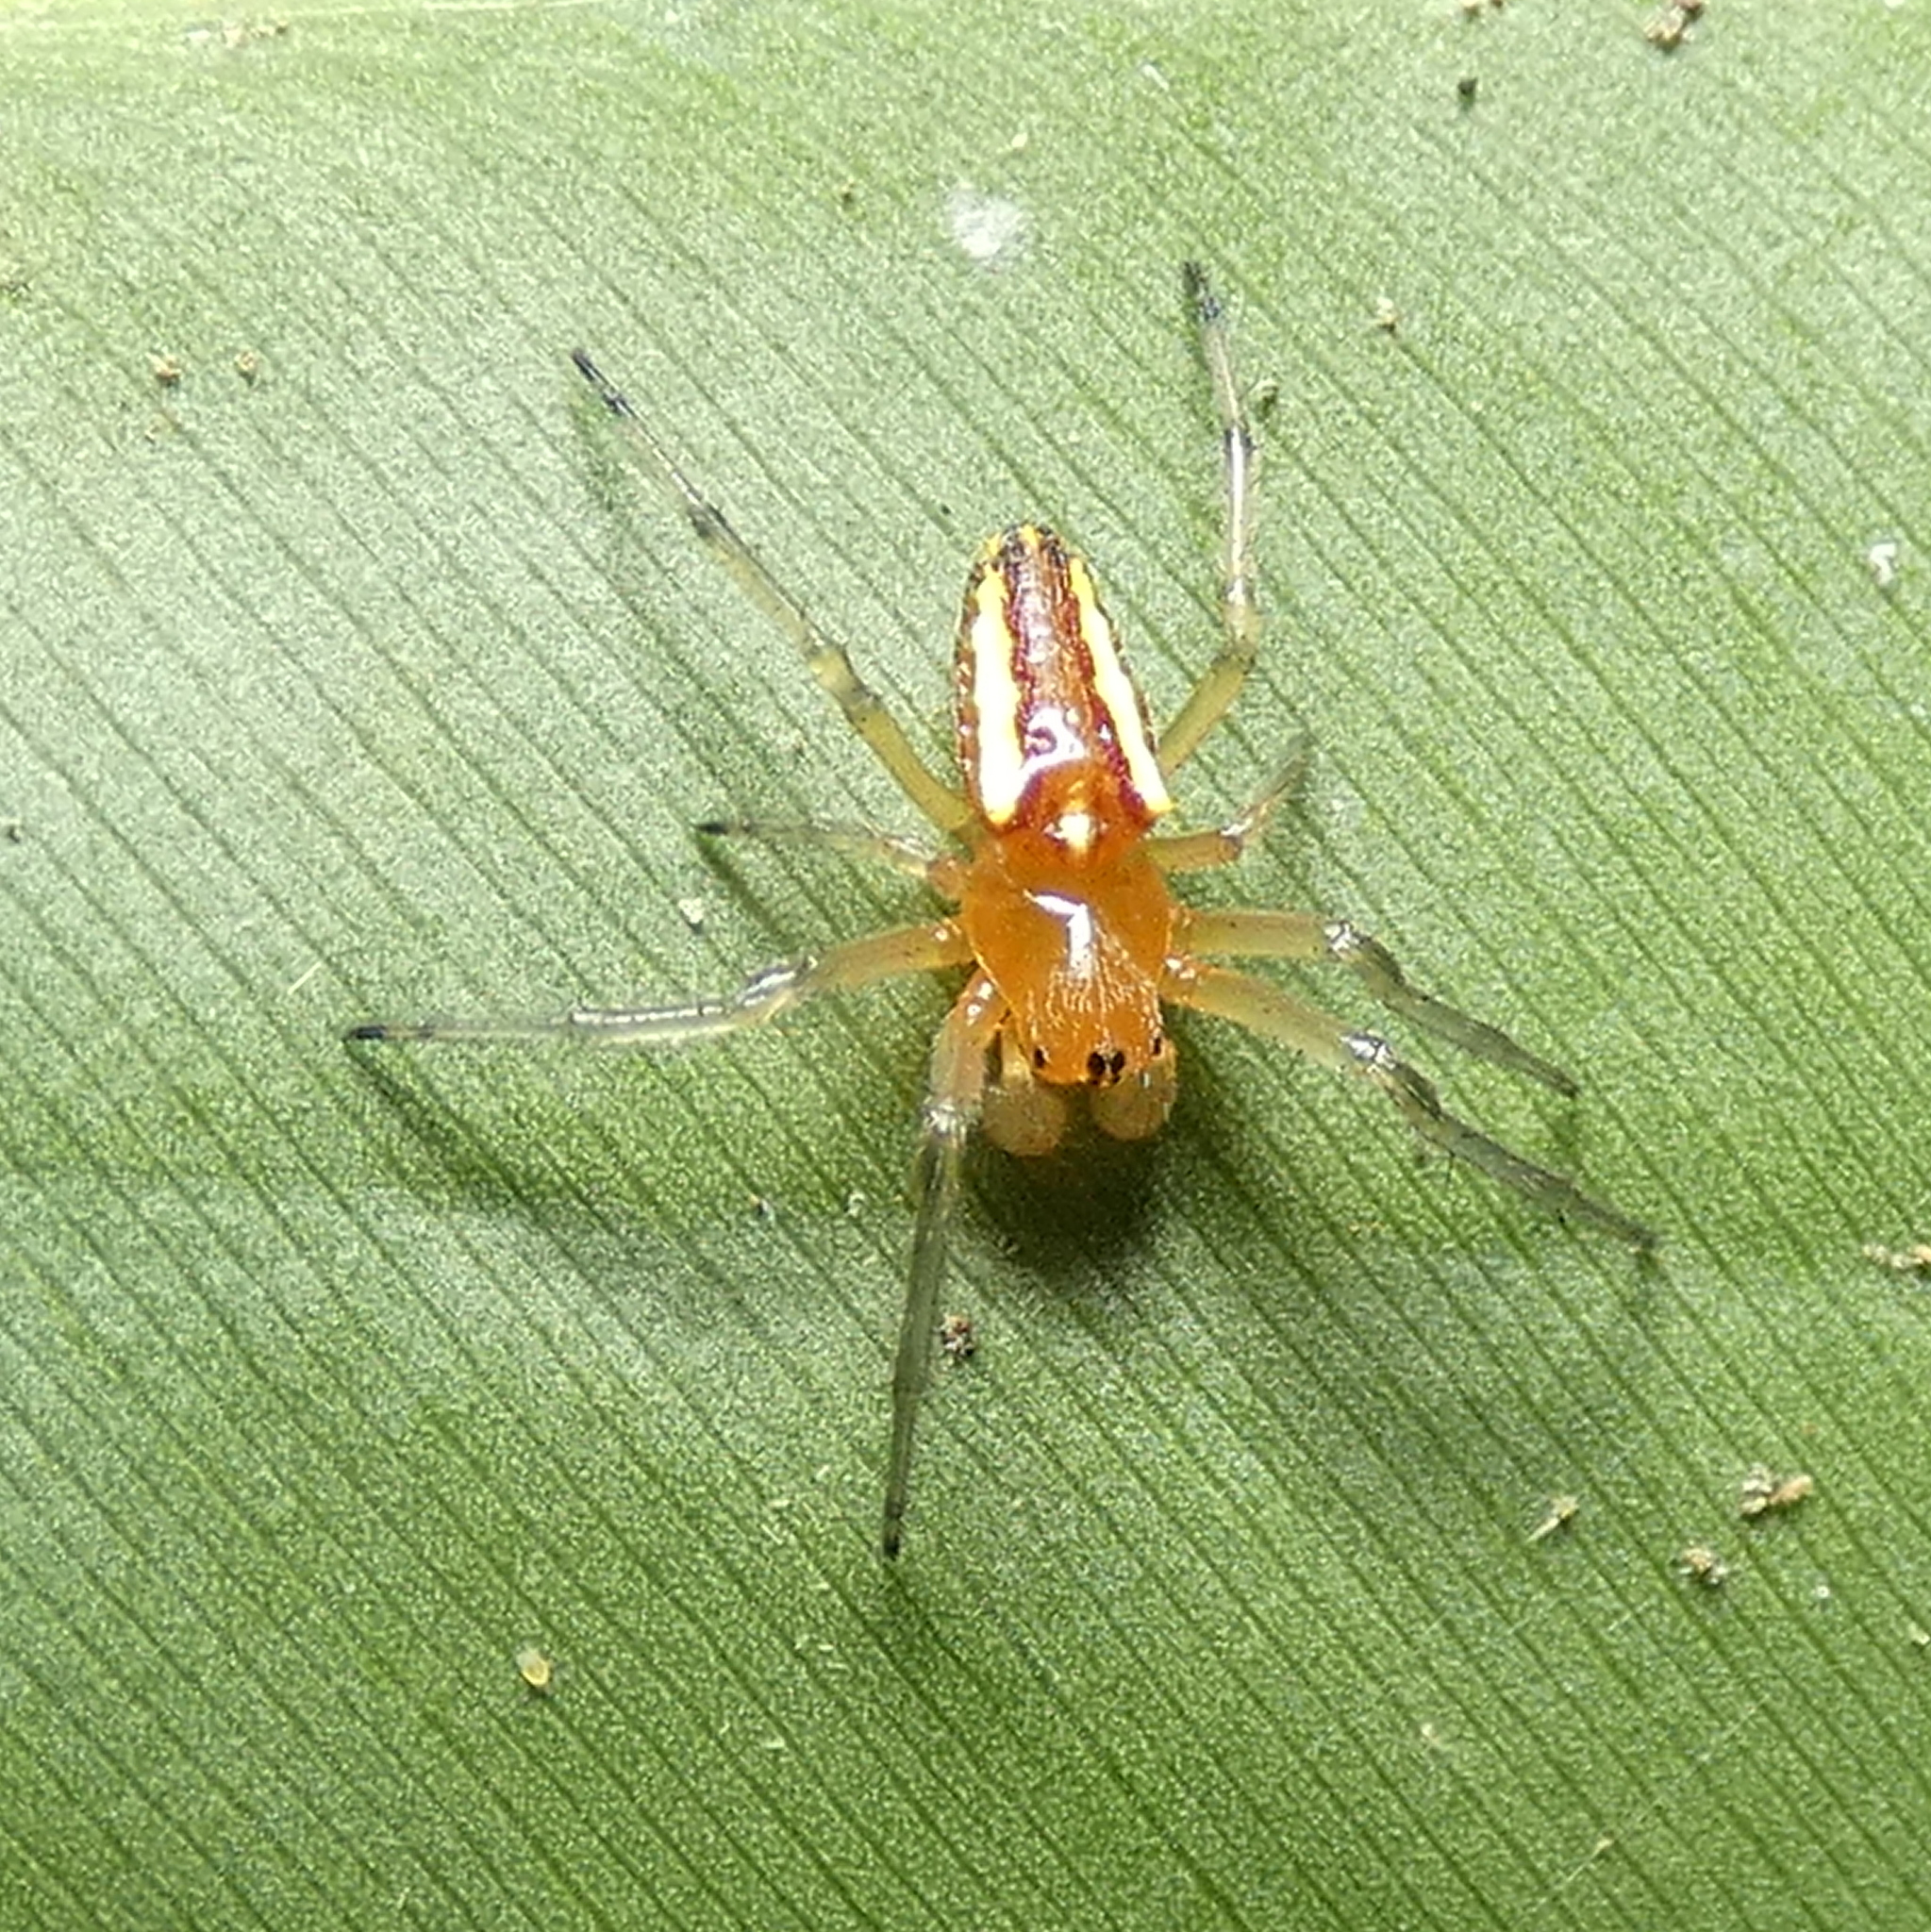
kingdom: Animalia
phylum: Arthropoda
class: Arachnida
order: Araneae
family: Araneidae
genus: Alpaida
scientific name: Alpaida bicornuta
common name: Orb weavers
